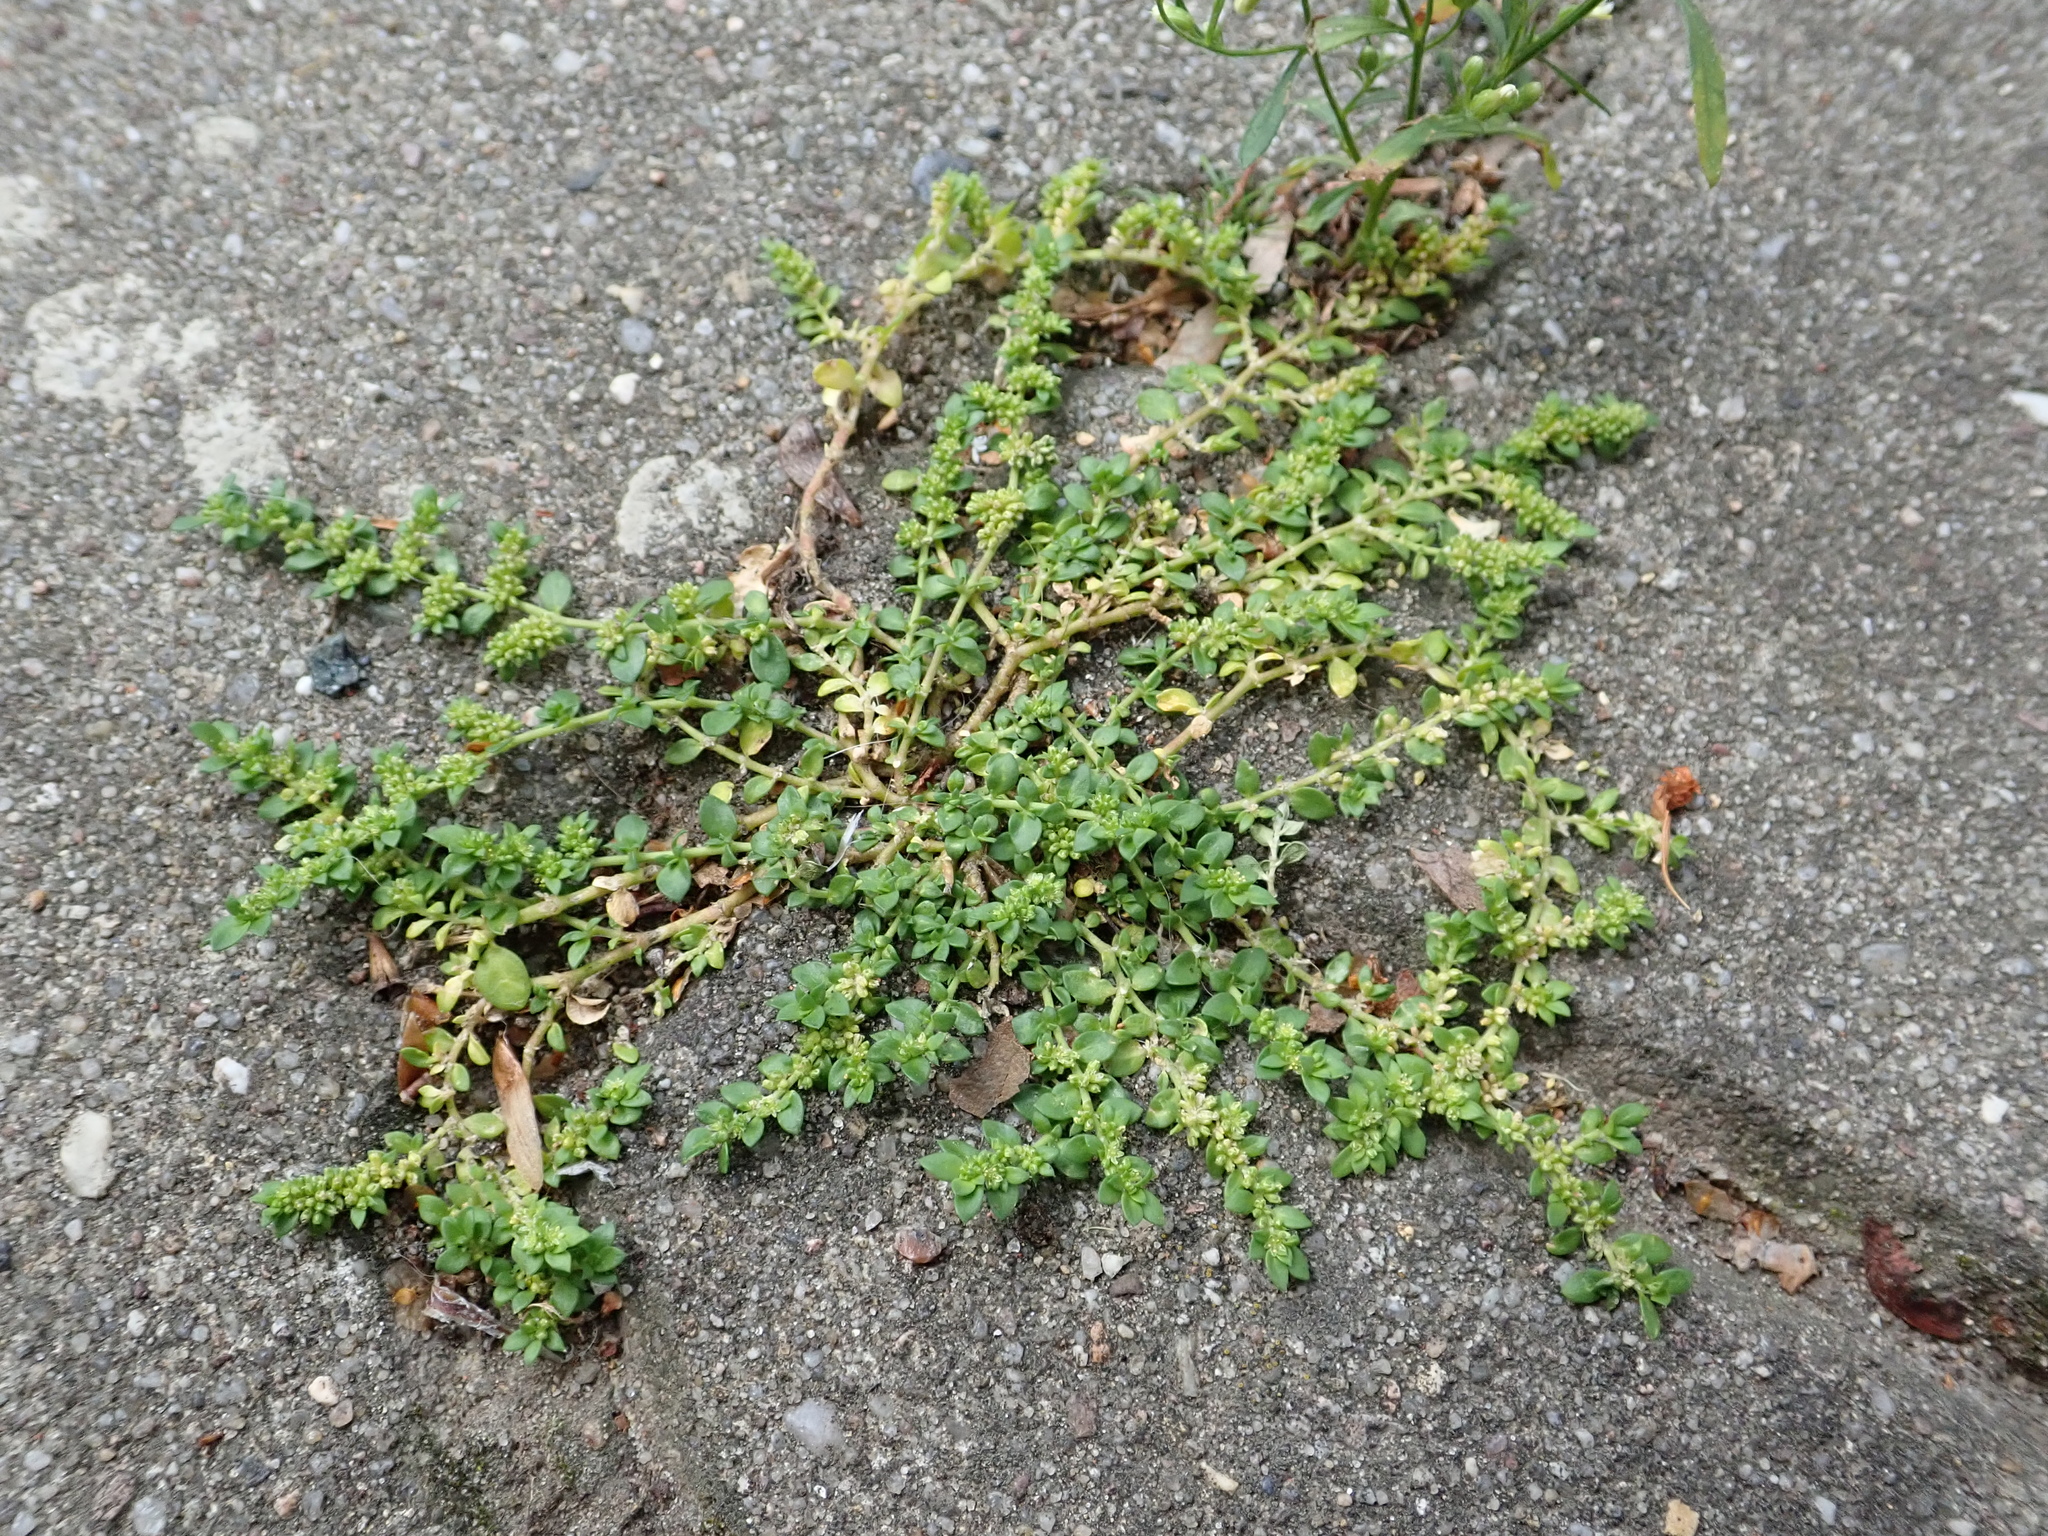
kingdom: Plantae
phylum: Tracheophyta
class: Magnoliopsida
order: Caryophyllales
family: Caryophyllaceae
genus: Herniaria
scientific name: Herniaria glabra
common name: Smooth rupturewort
